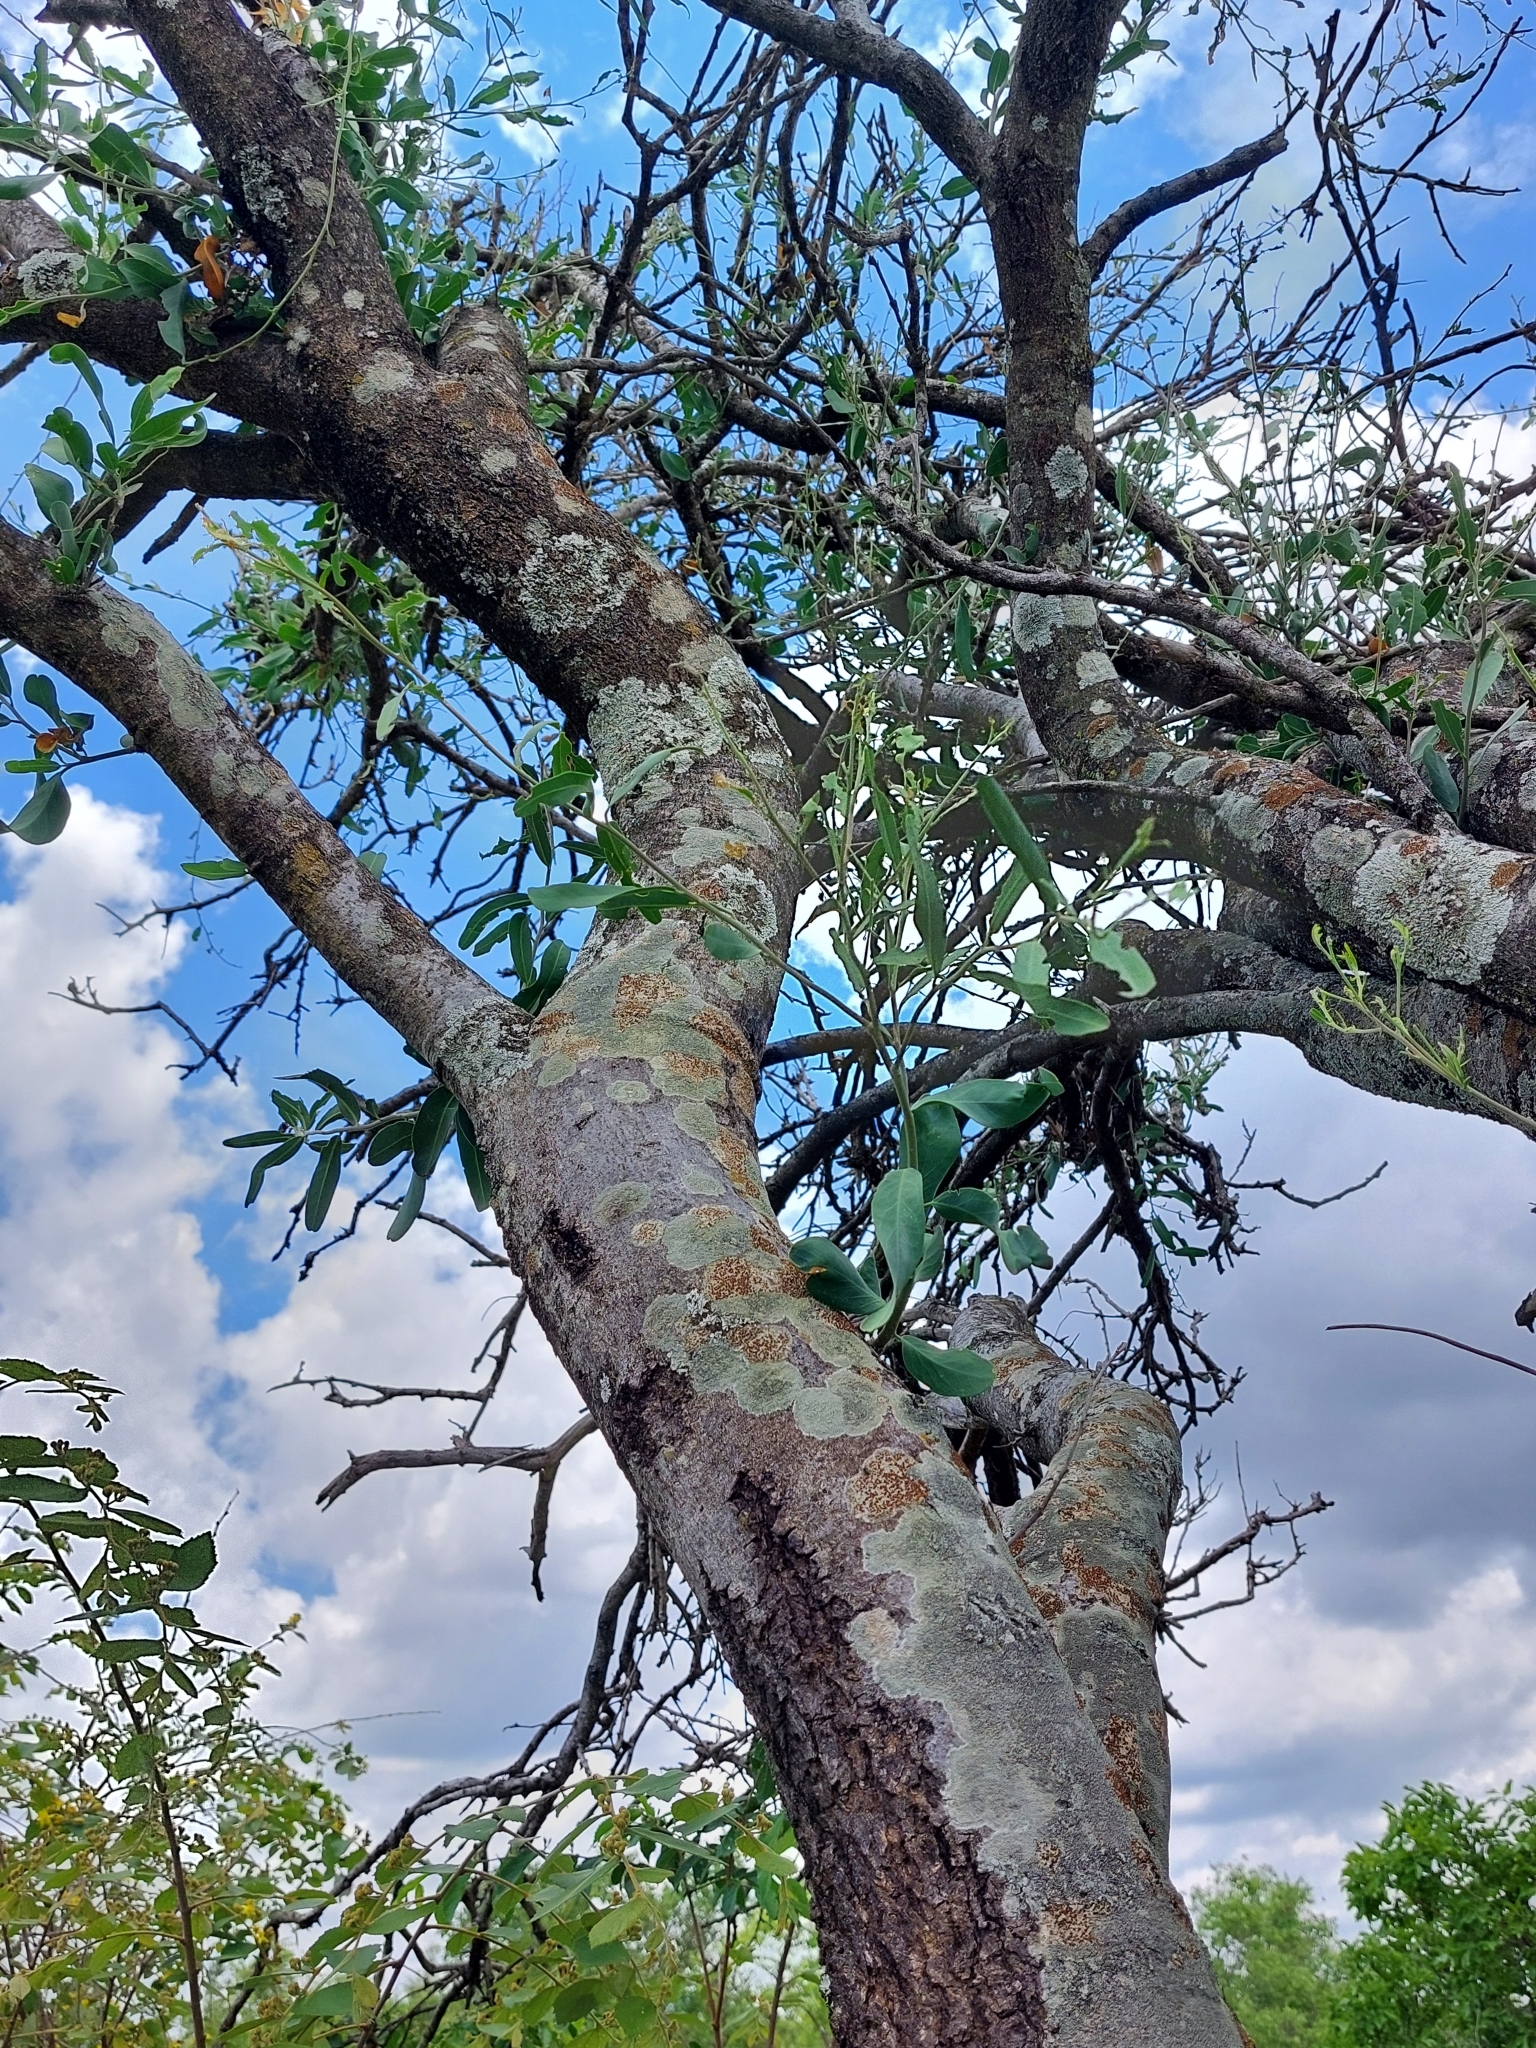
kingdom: Plantae
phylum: Tracheophyta
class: Magnoliopsida
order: Brassicales
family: Capparaceae
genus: Boscia
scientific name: Boscia albitrunca
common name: Caper bush
